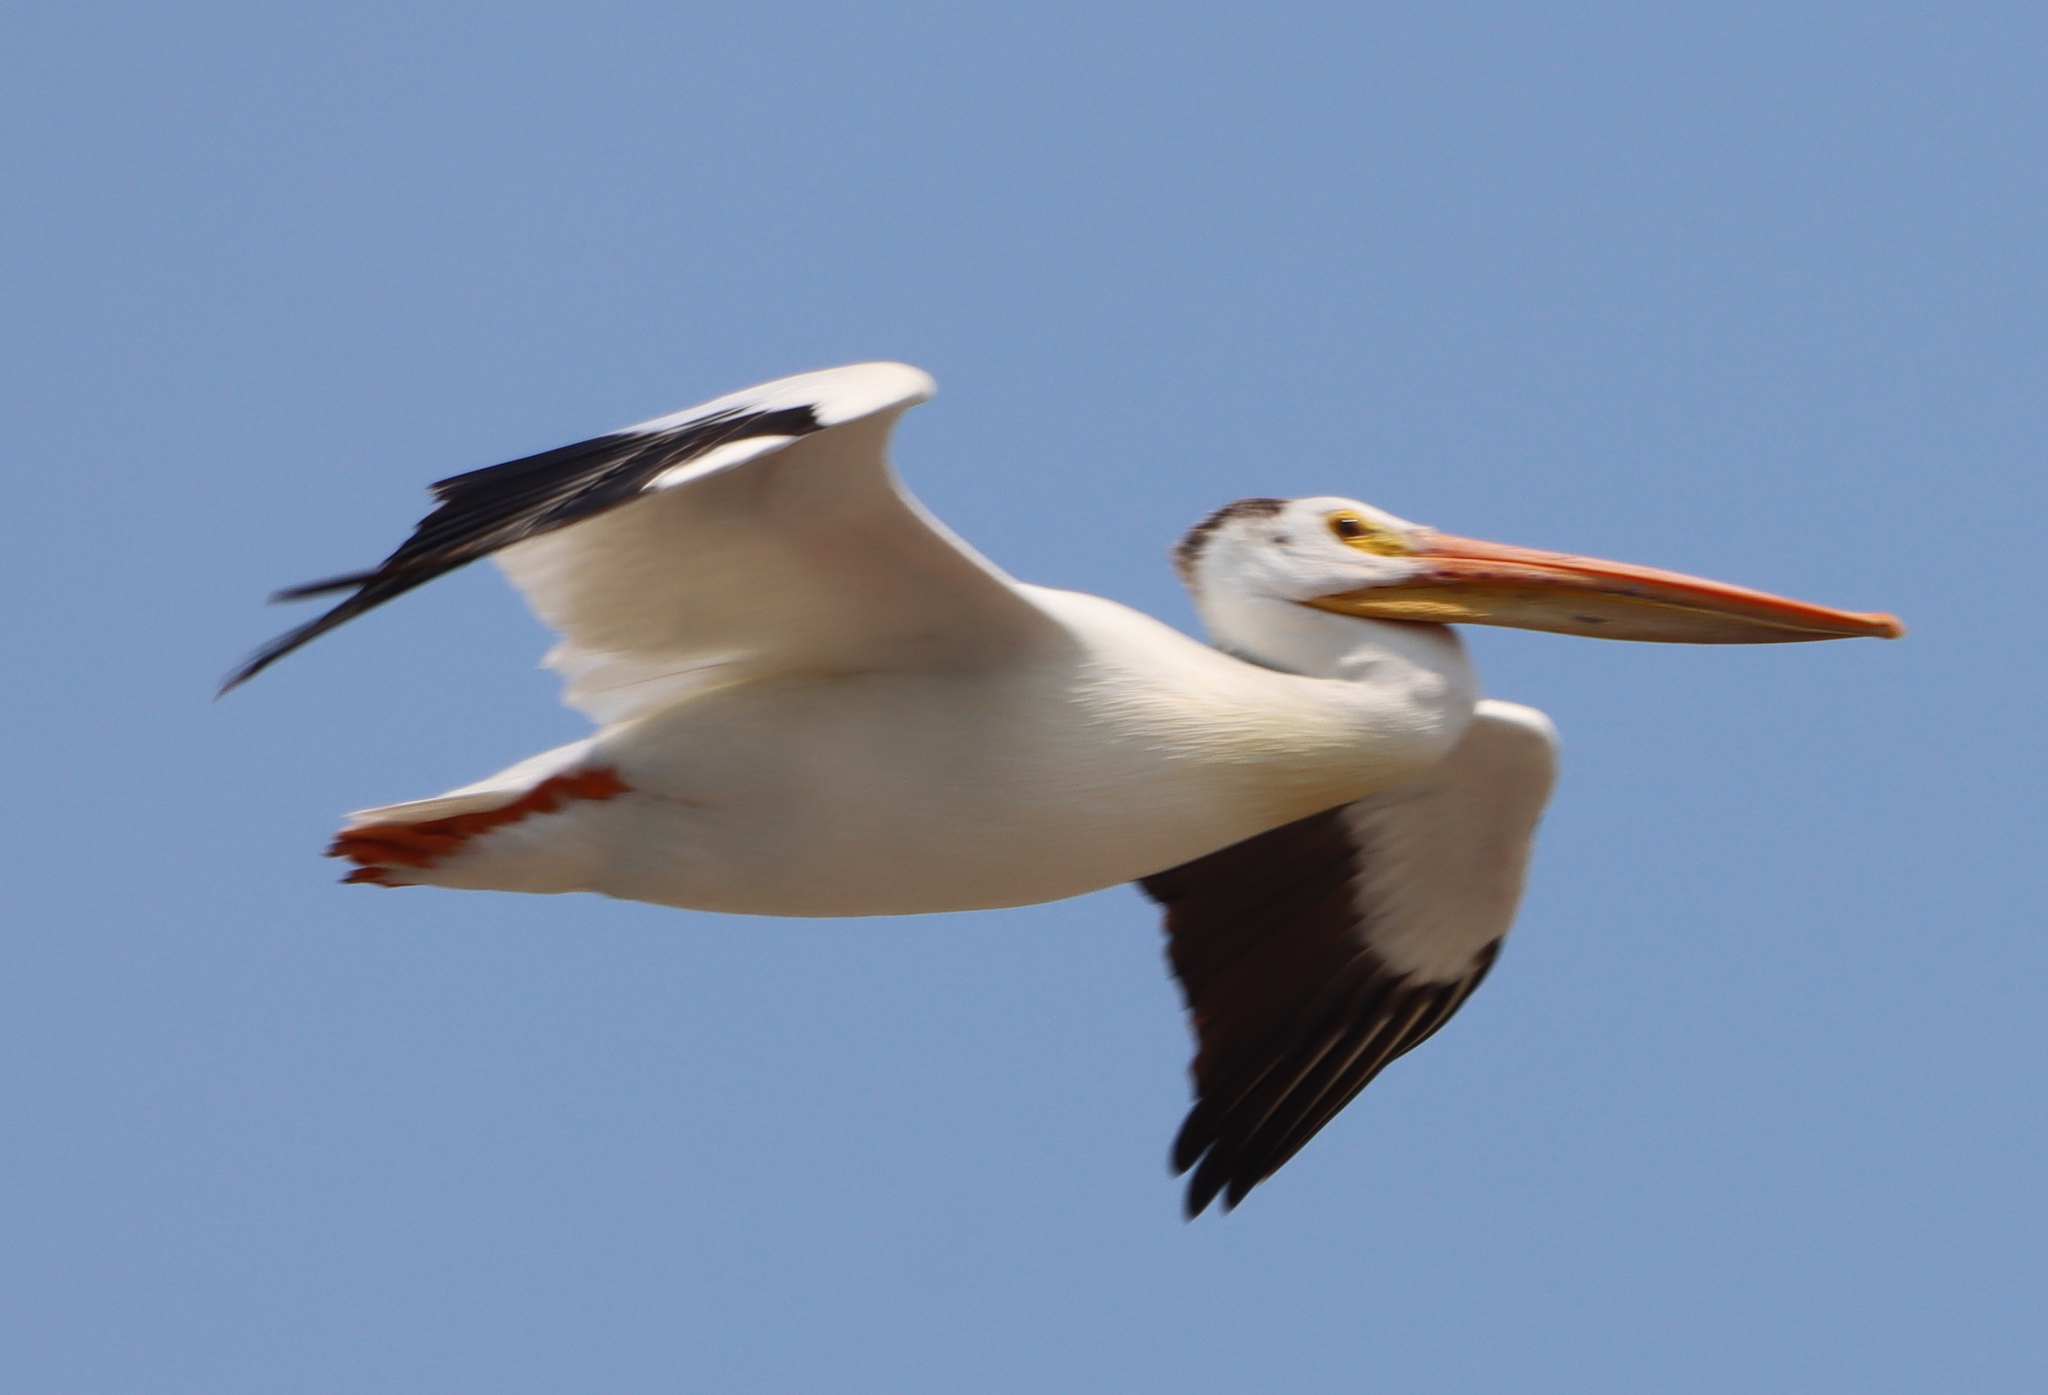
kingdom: Animalia
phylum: Chordata
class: Aves
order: Pelecaniformes
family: Pelecanidae
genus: Pelecanus
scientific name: Pelecanus erythrorhynchos
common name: American white pelican
